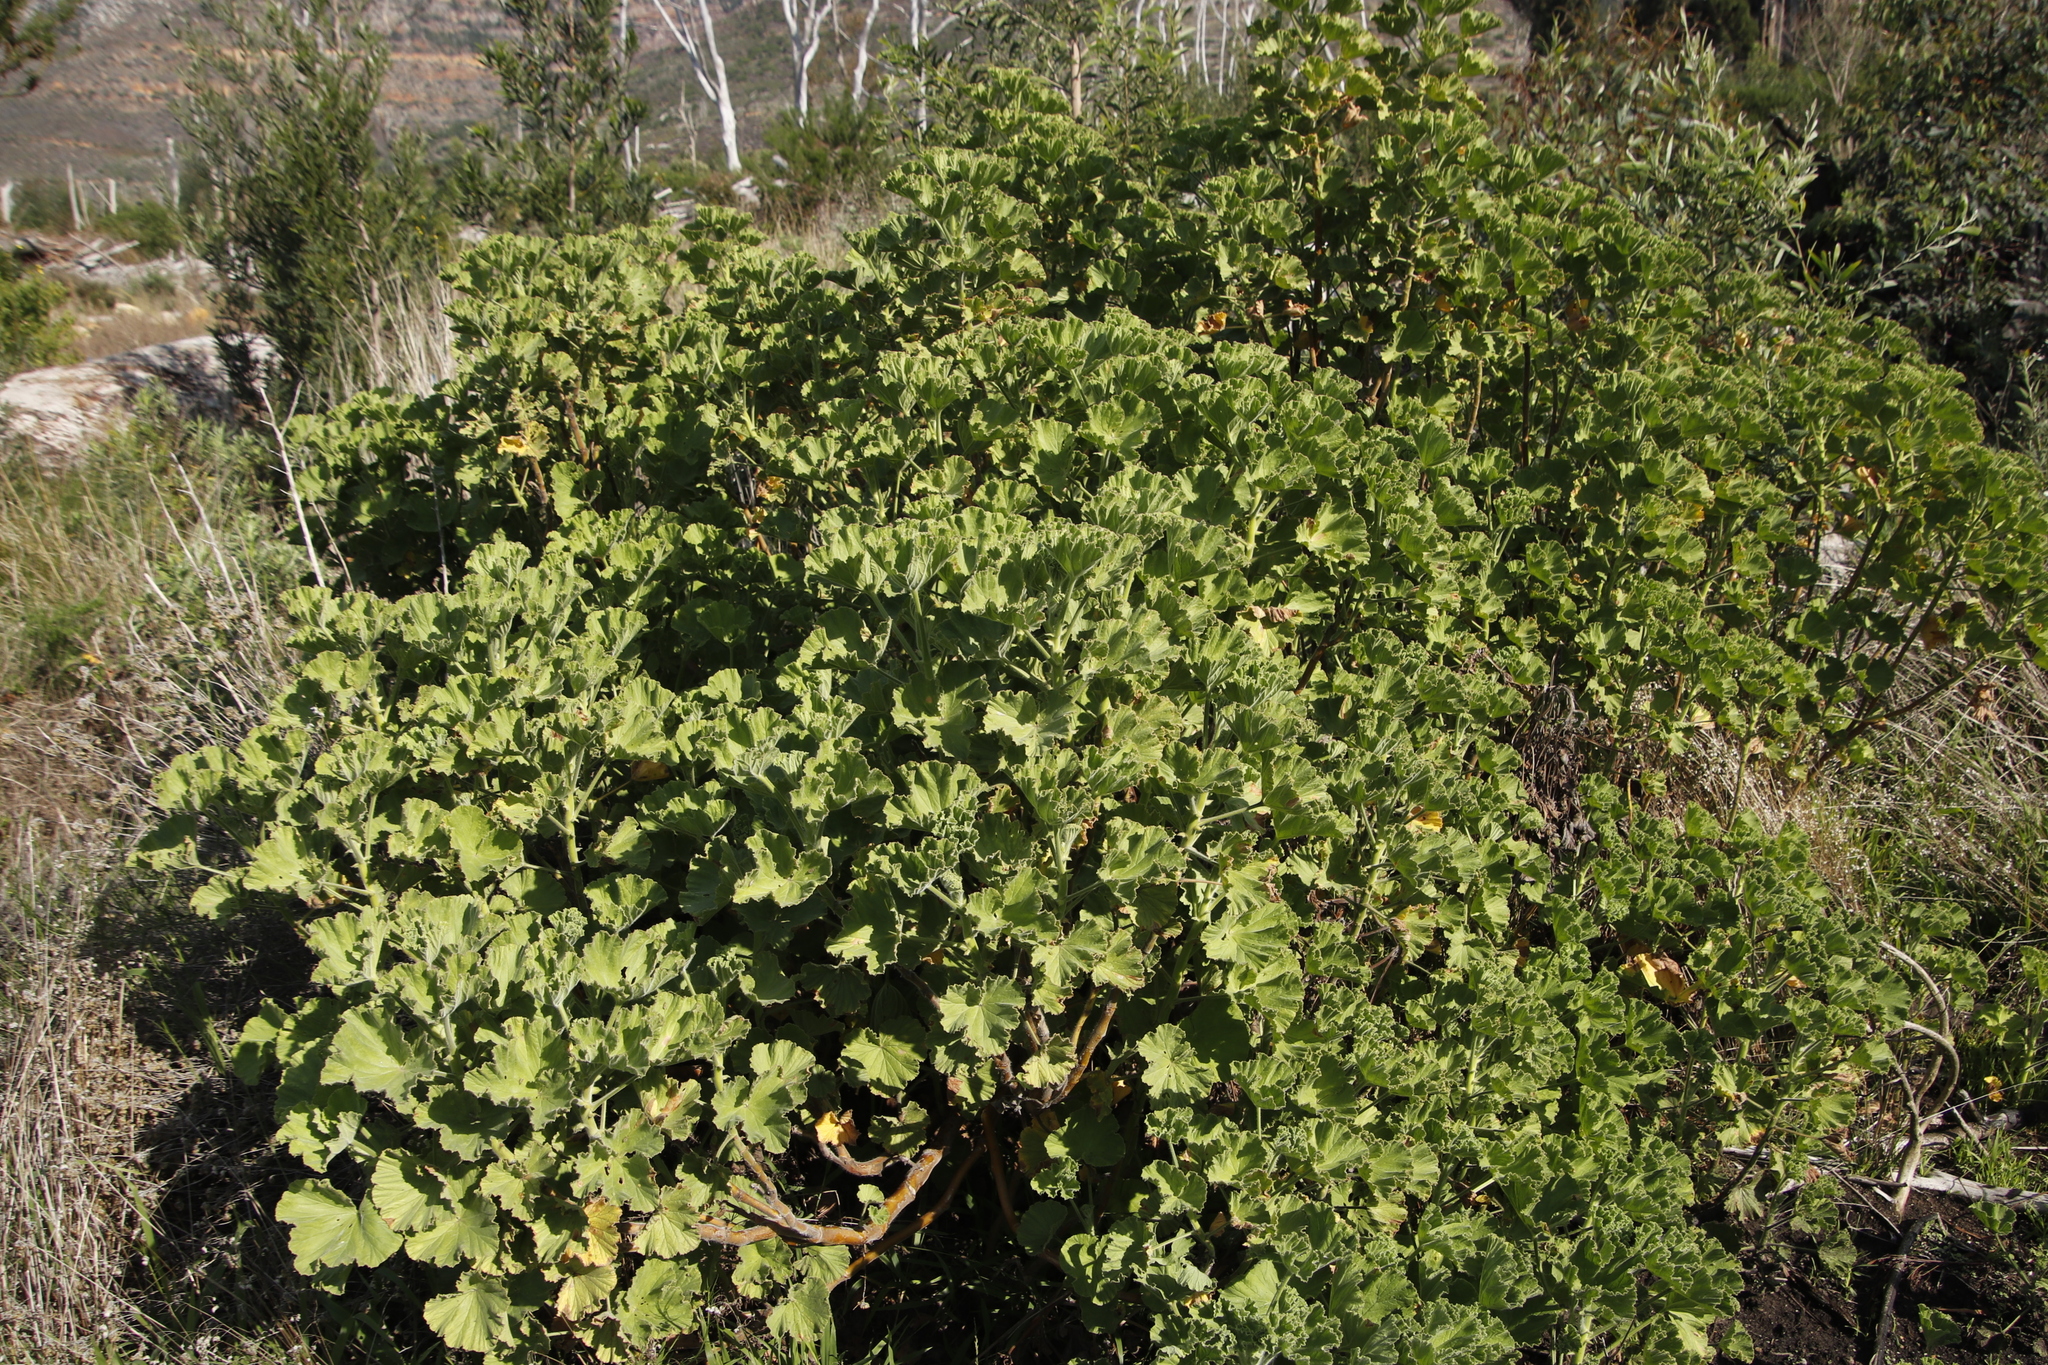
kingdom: Plantae
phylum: Tracheophyta
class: Magnoliopsida
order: Geraniales
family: Geraniaceae
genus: Pelargonium
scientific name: Pelargonium cucullatum
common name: Tree pelargonium
